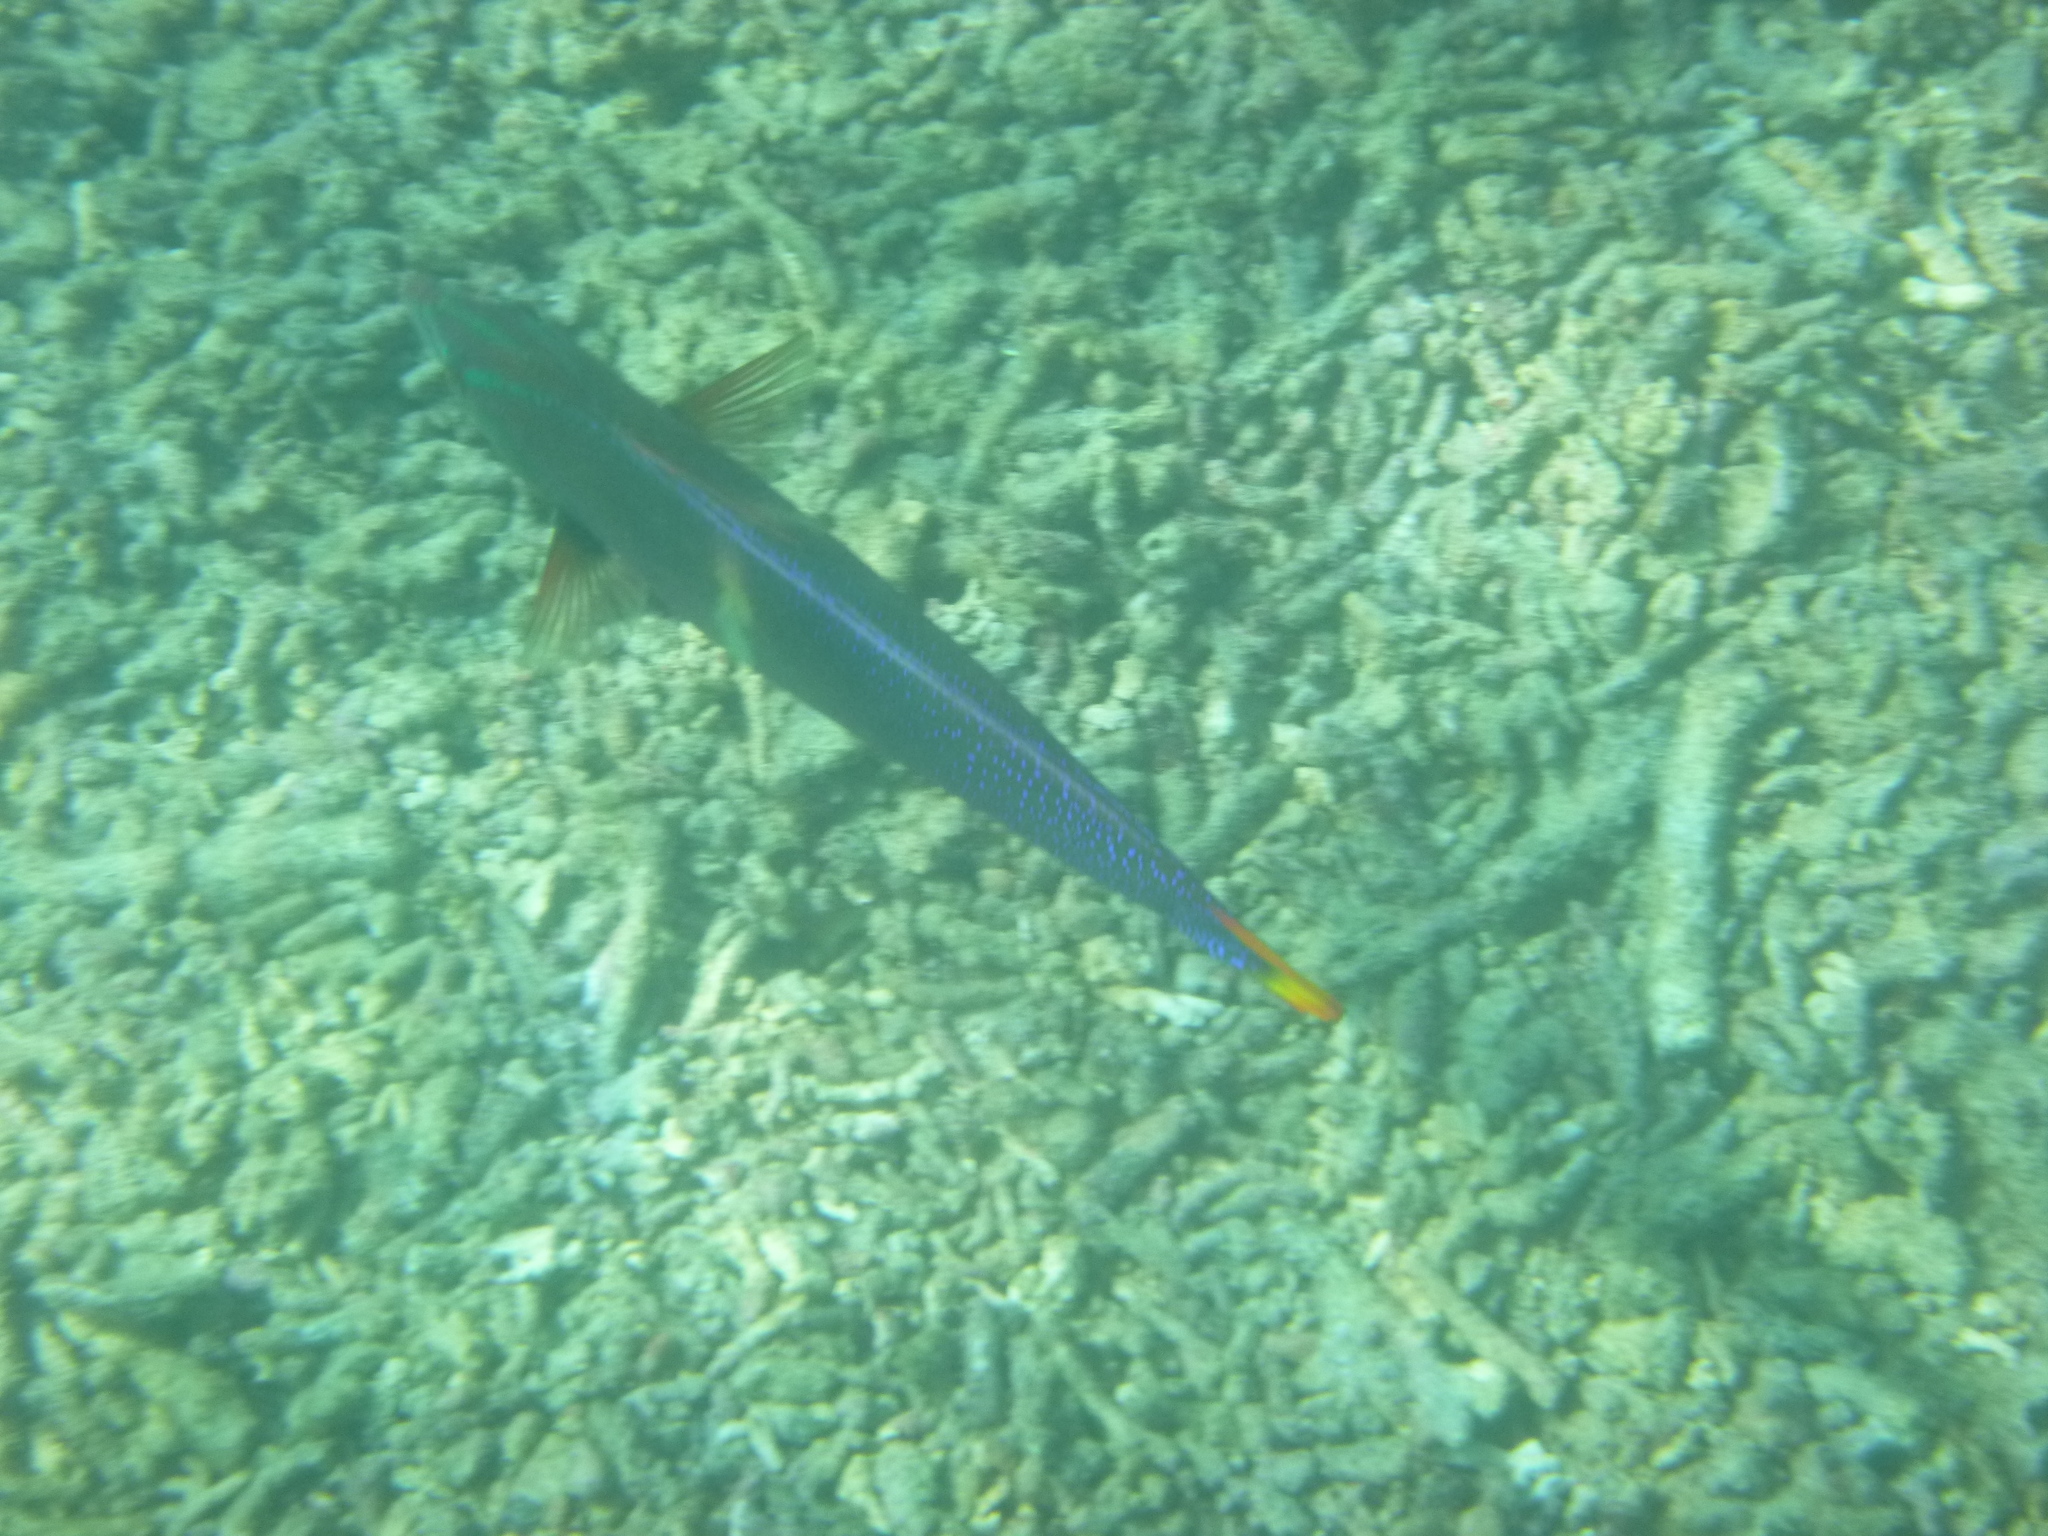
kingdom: Animalia
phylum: Chordata
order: Perciformes
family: Labridae
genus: Coris
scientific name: Coris gaimard
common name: Yellowtail coris
